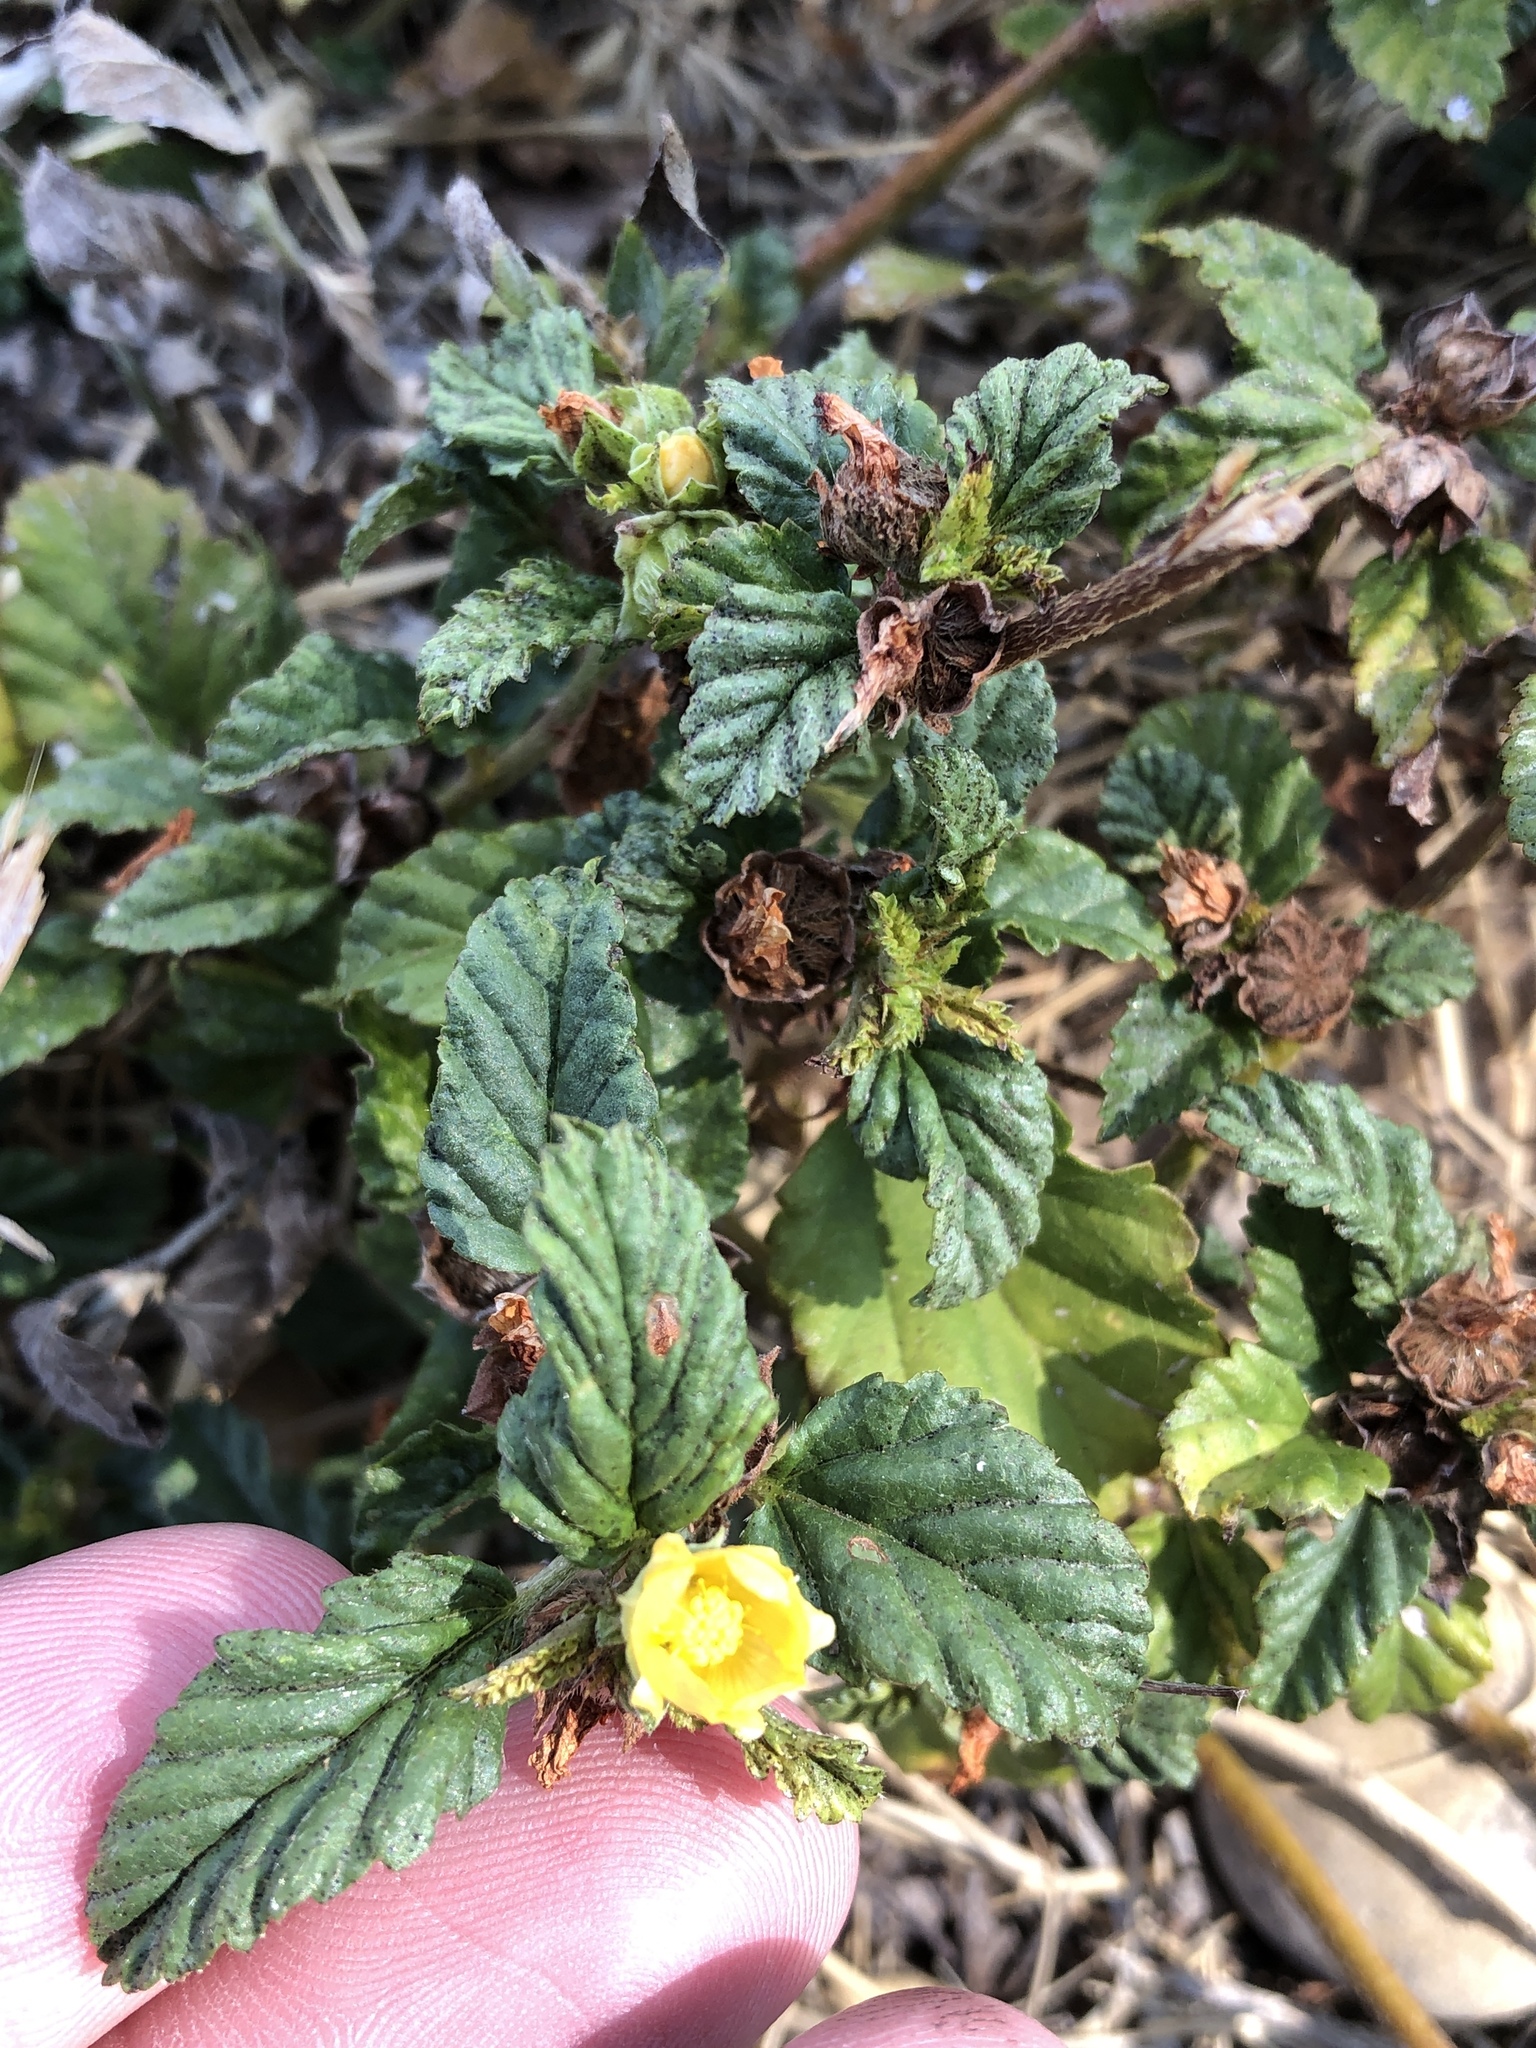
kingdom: Plantae
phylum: Tracheophyta
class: Magnoliopsida
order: Malvales
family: Malvaceae
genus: Malvastrum
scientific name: Malvastrum coromandelianum
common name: Threelobe false mallow
